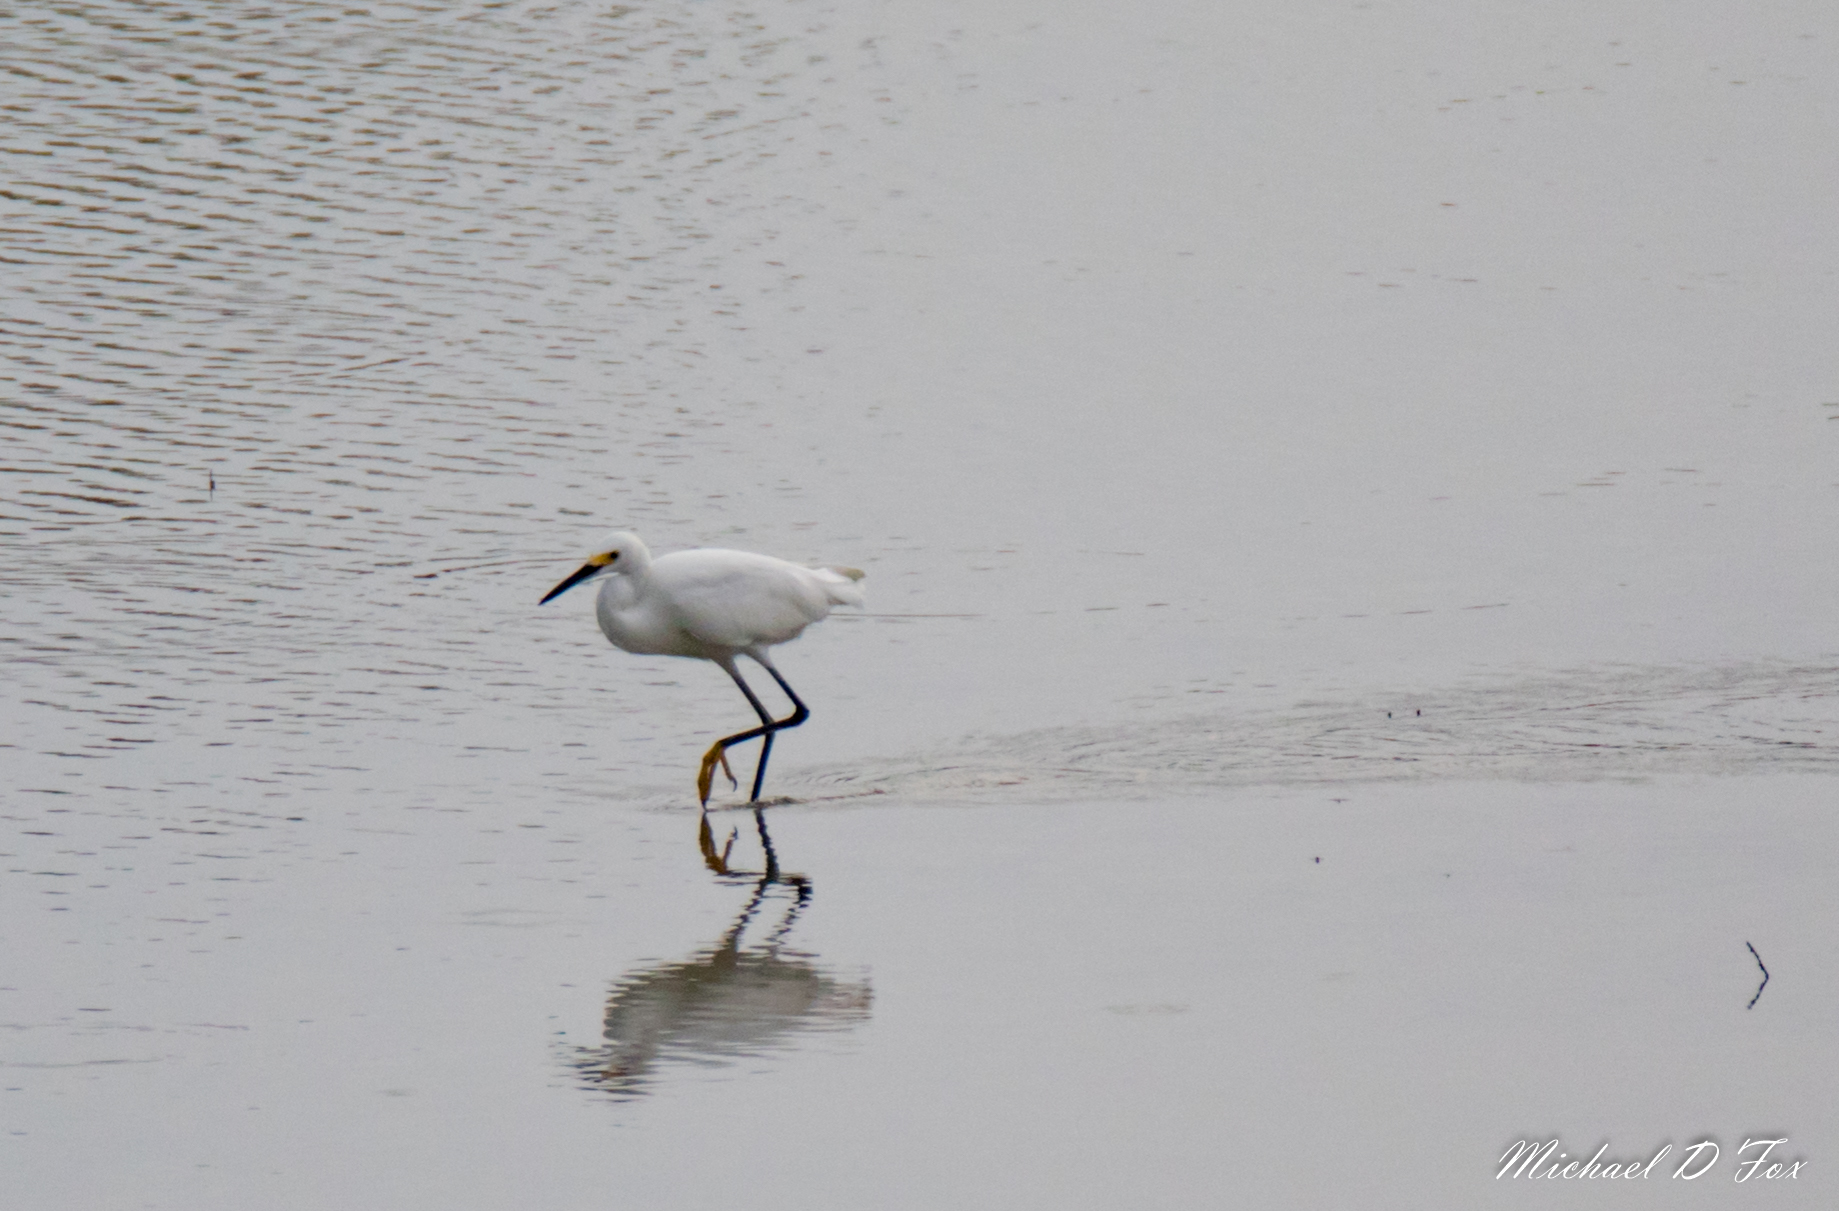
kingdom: Animalia
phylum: Chordata
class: Aves
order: Pelecaniformes
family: Ardeidae
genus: Egretta
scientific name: Egretta thula
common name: Snowy egret
